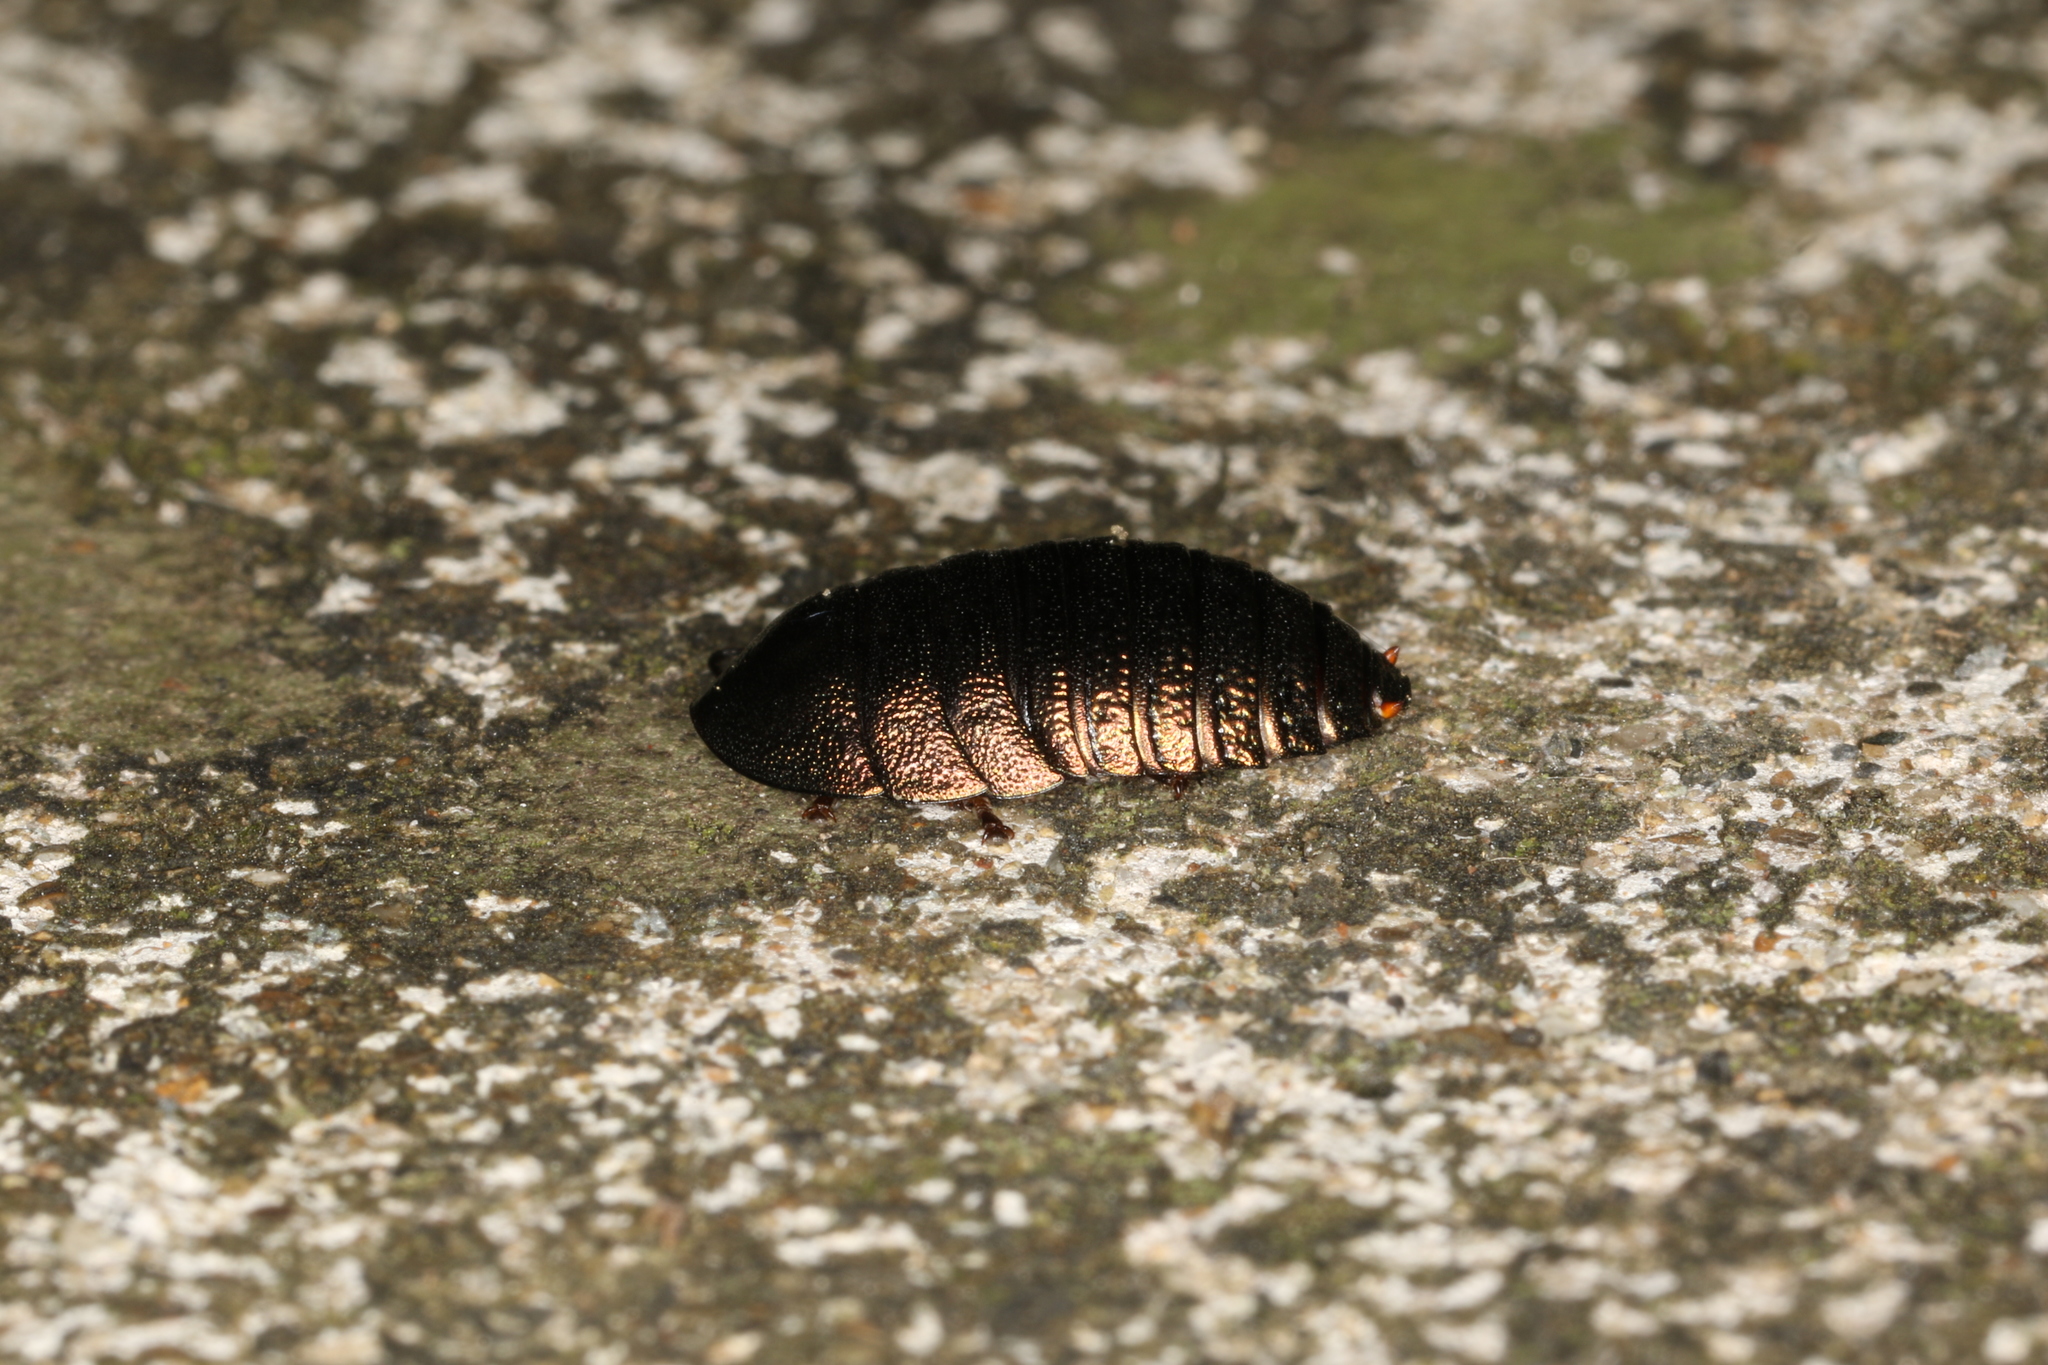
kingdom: Animalia
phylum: Arthropoda
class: Insecta
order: Blattodea
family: Blaberidae
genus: Pseudoglomeris
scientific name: Pseudoglomeris
